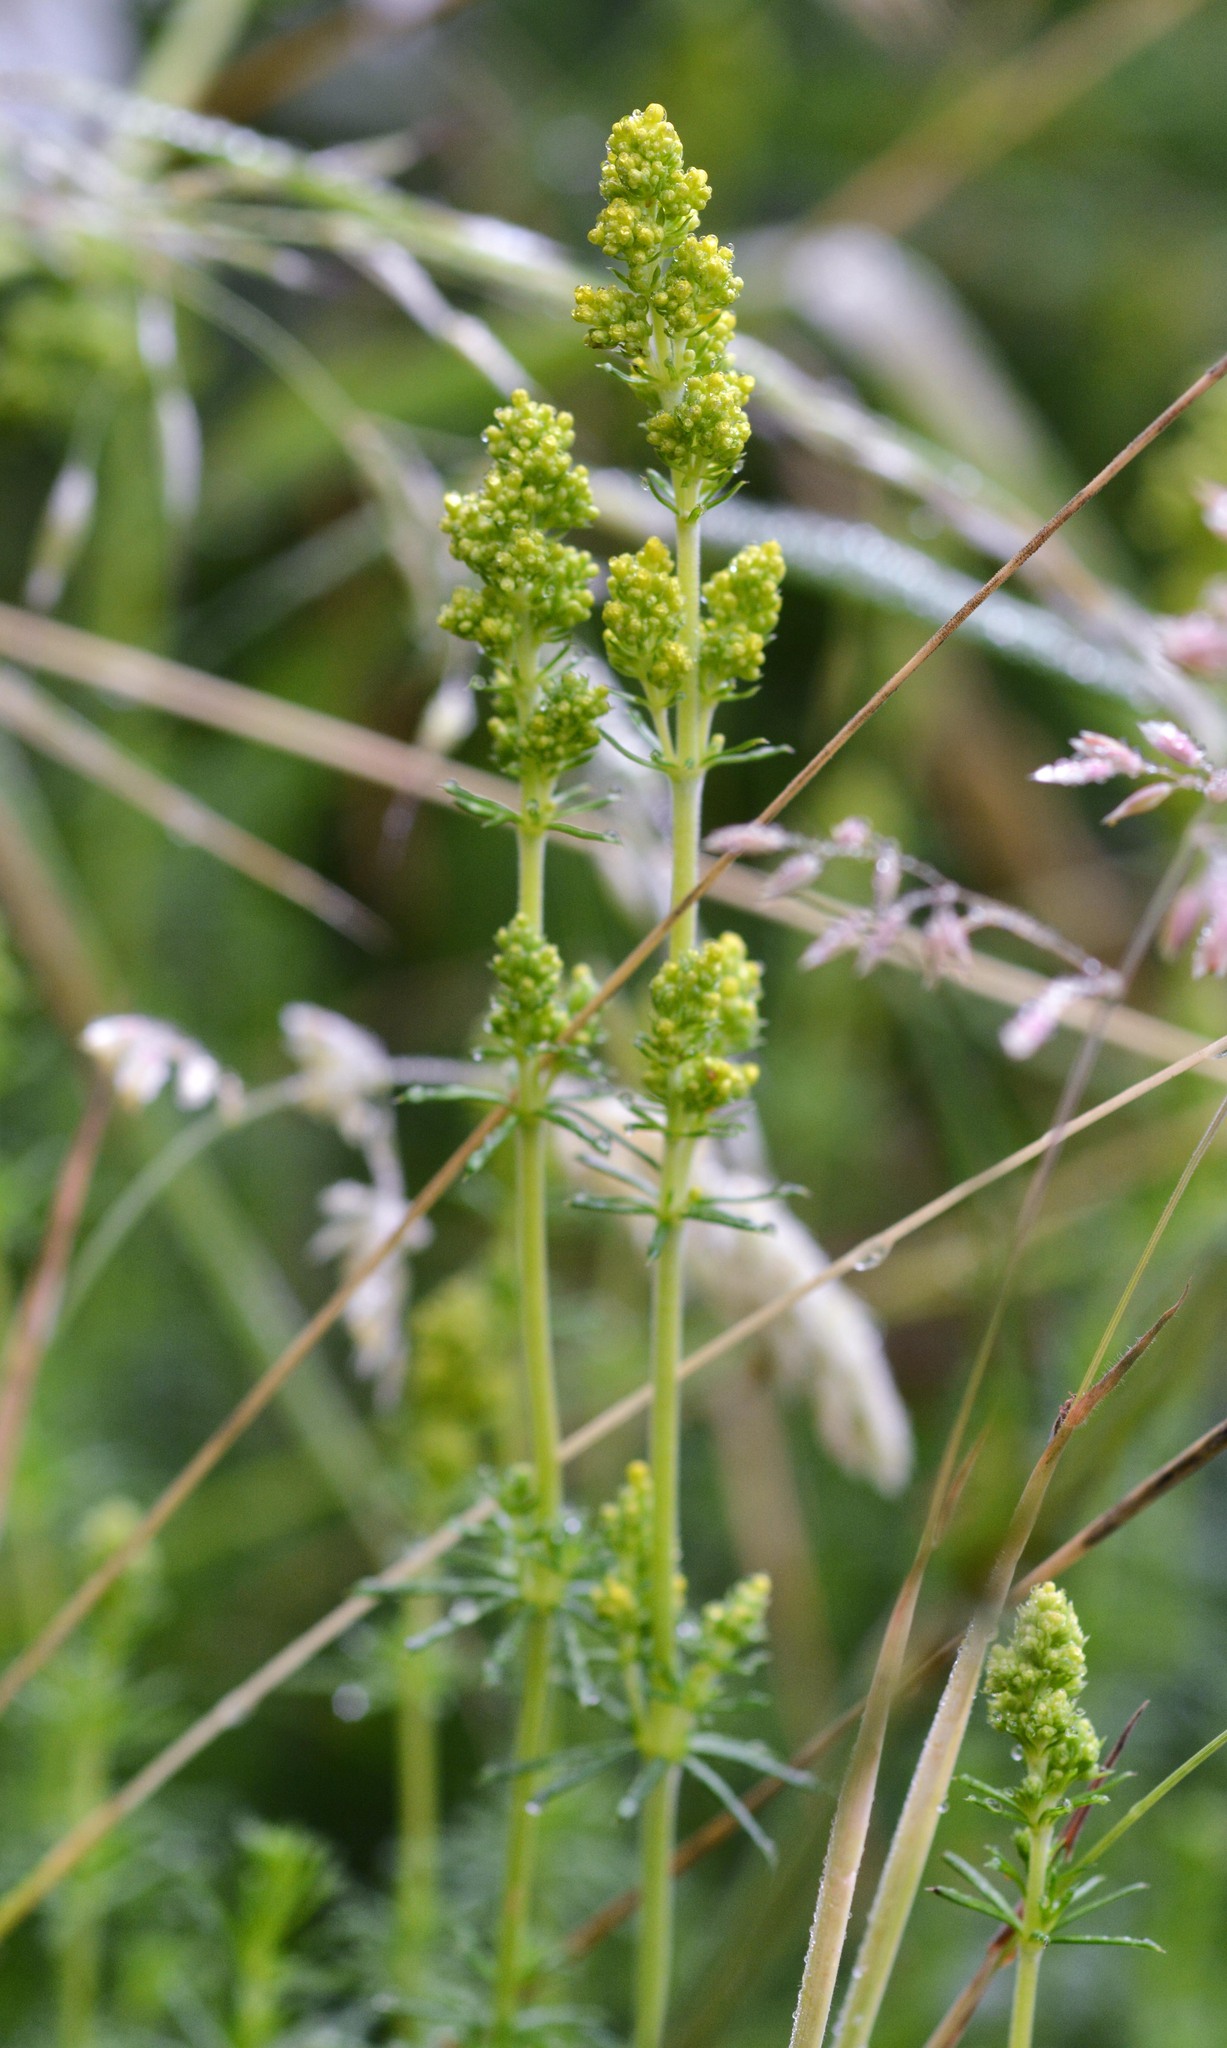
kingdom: Plantae
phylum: Tracheophyta
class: Magnoliopsida
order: Gentianales
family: Rubiaceae
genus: Galium
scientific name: Galium verum
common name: Lady's bedstraw
